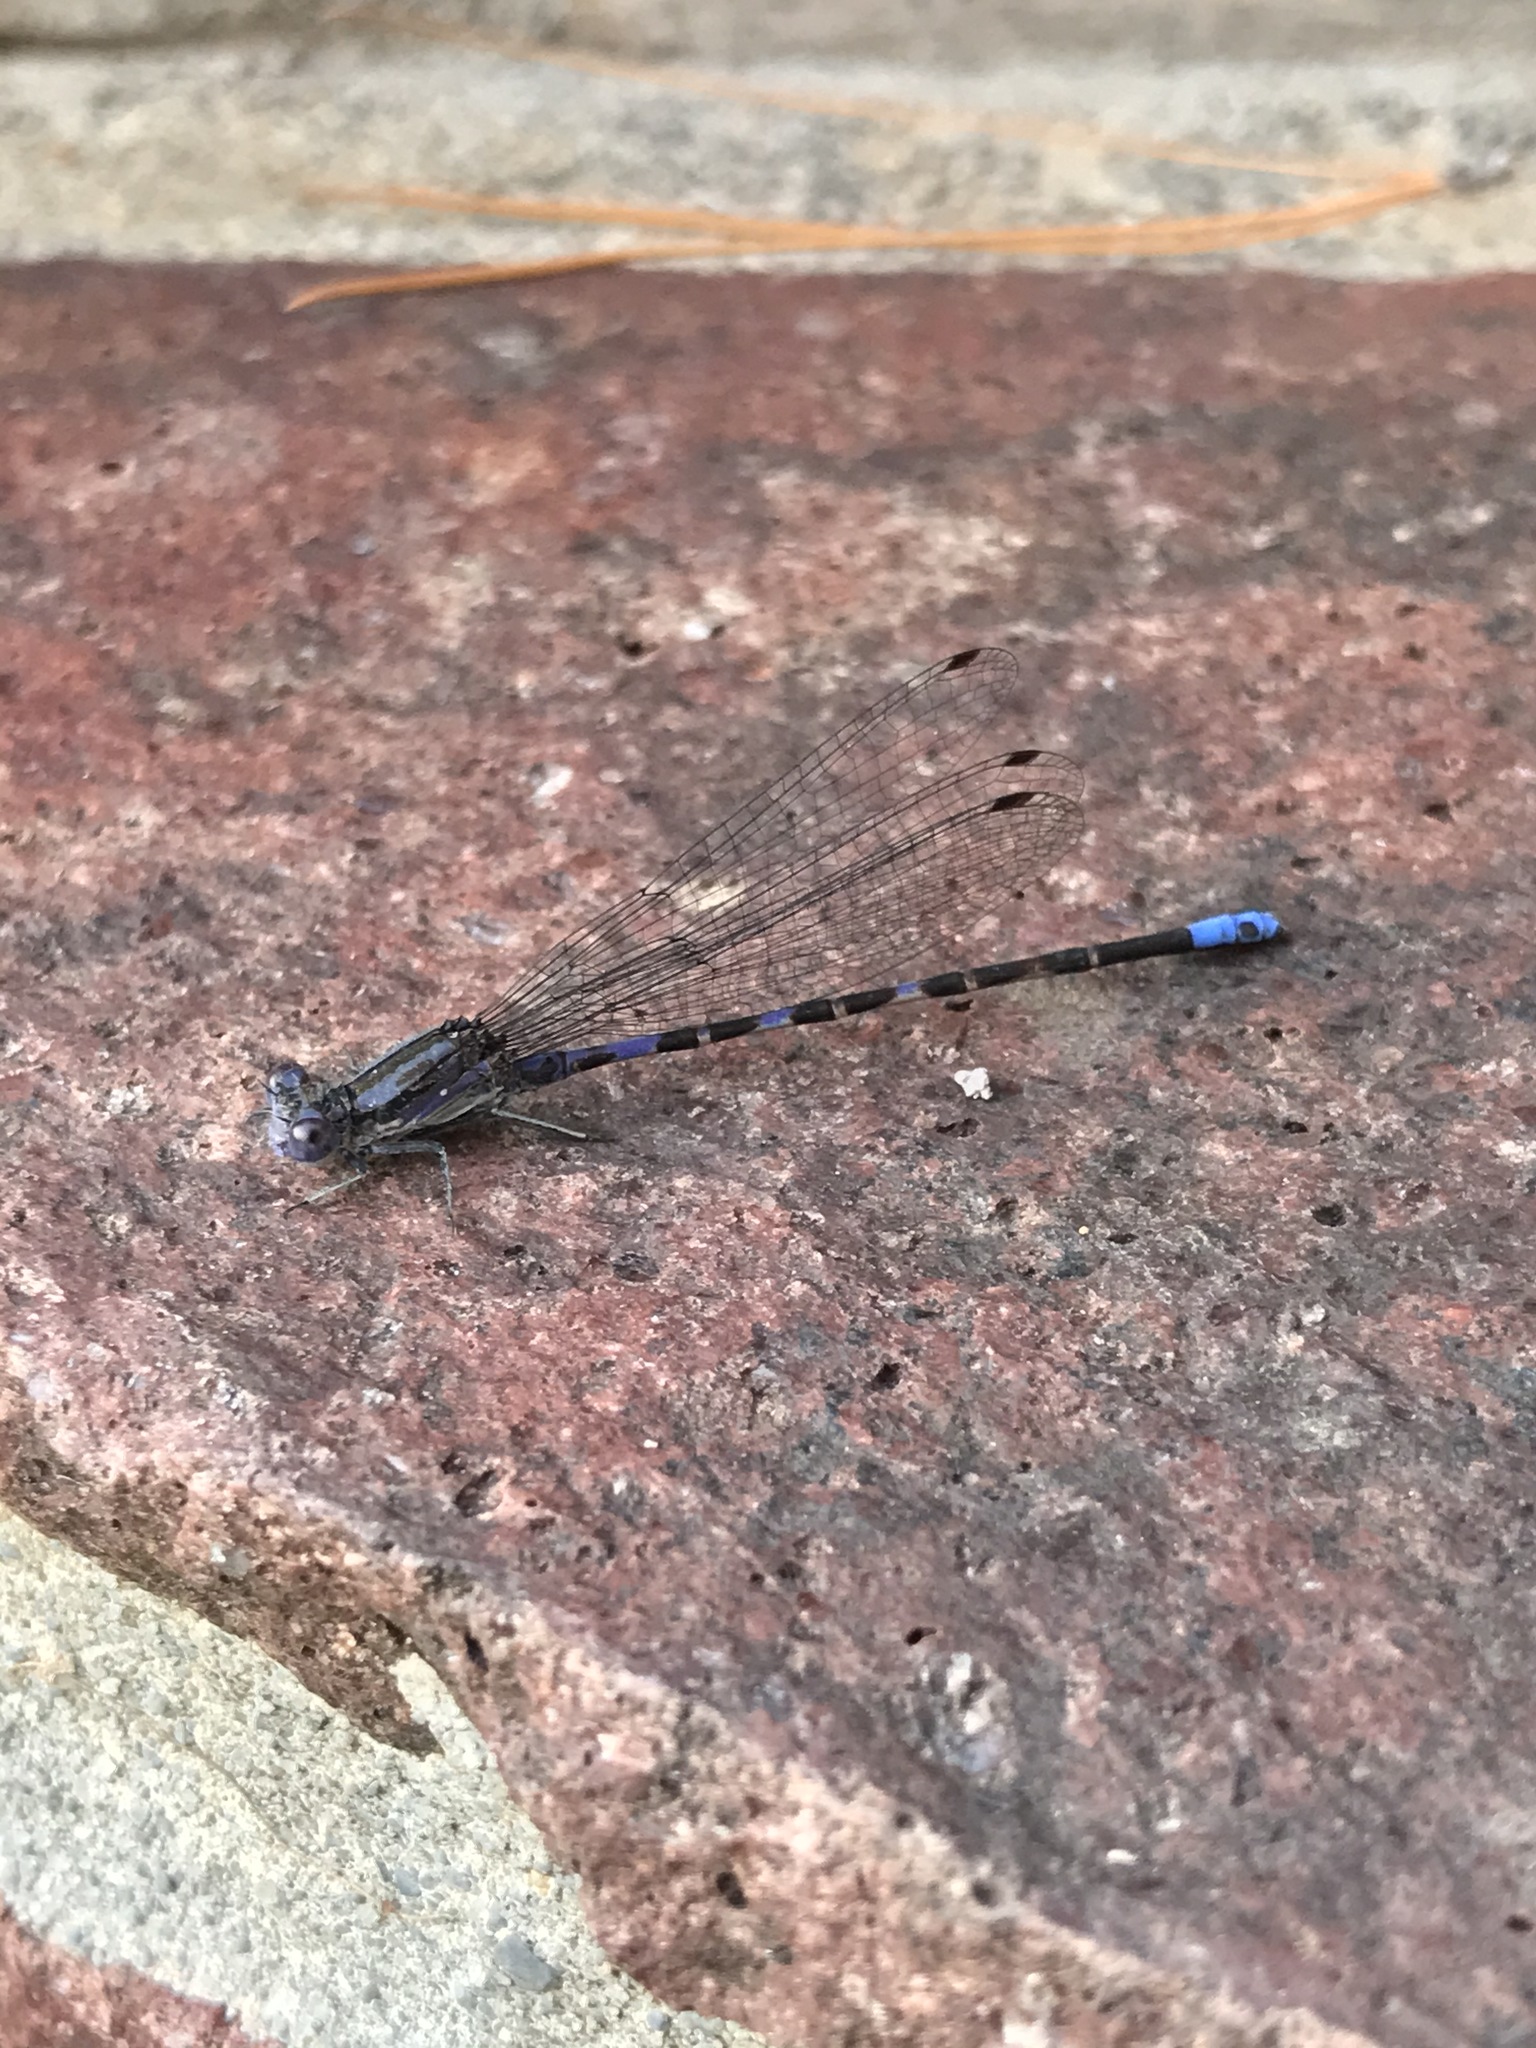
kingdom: Animalia
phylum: Arthropoda
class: Insecta
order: Odonata
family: Coenagrionidae
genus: Argia
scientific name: Argia immunda
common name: Kiowa dancer
